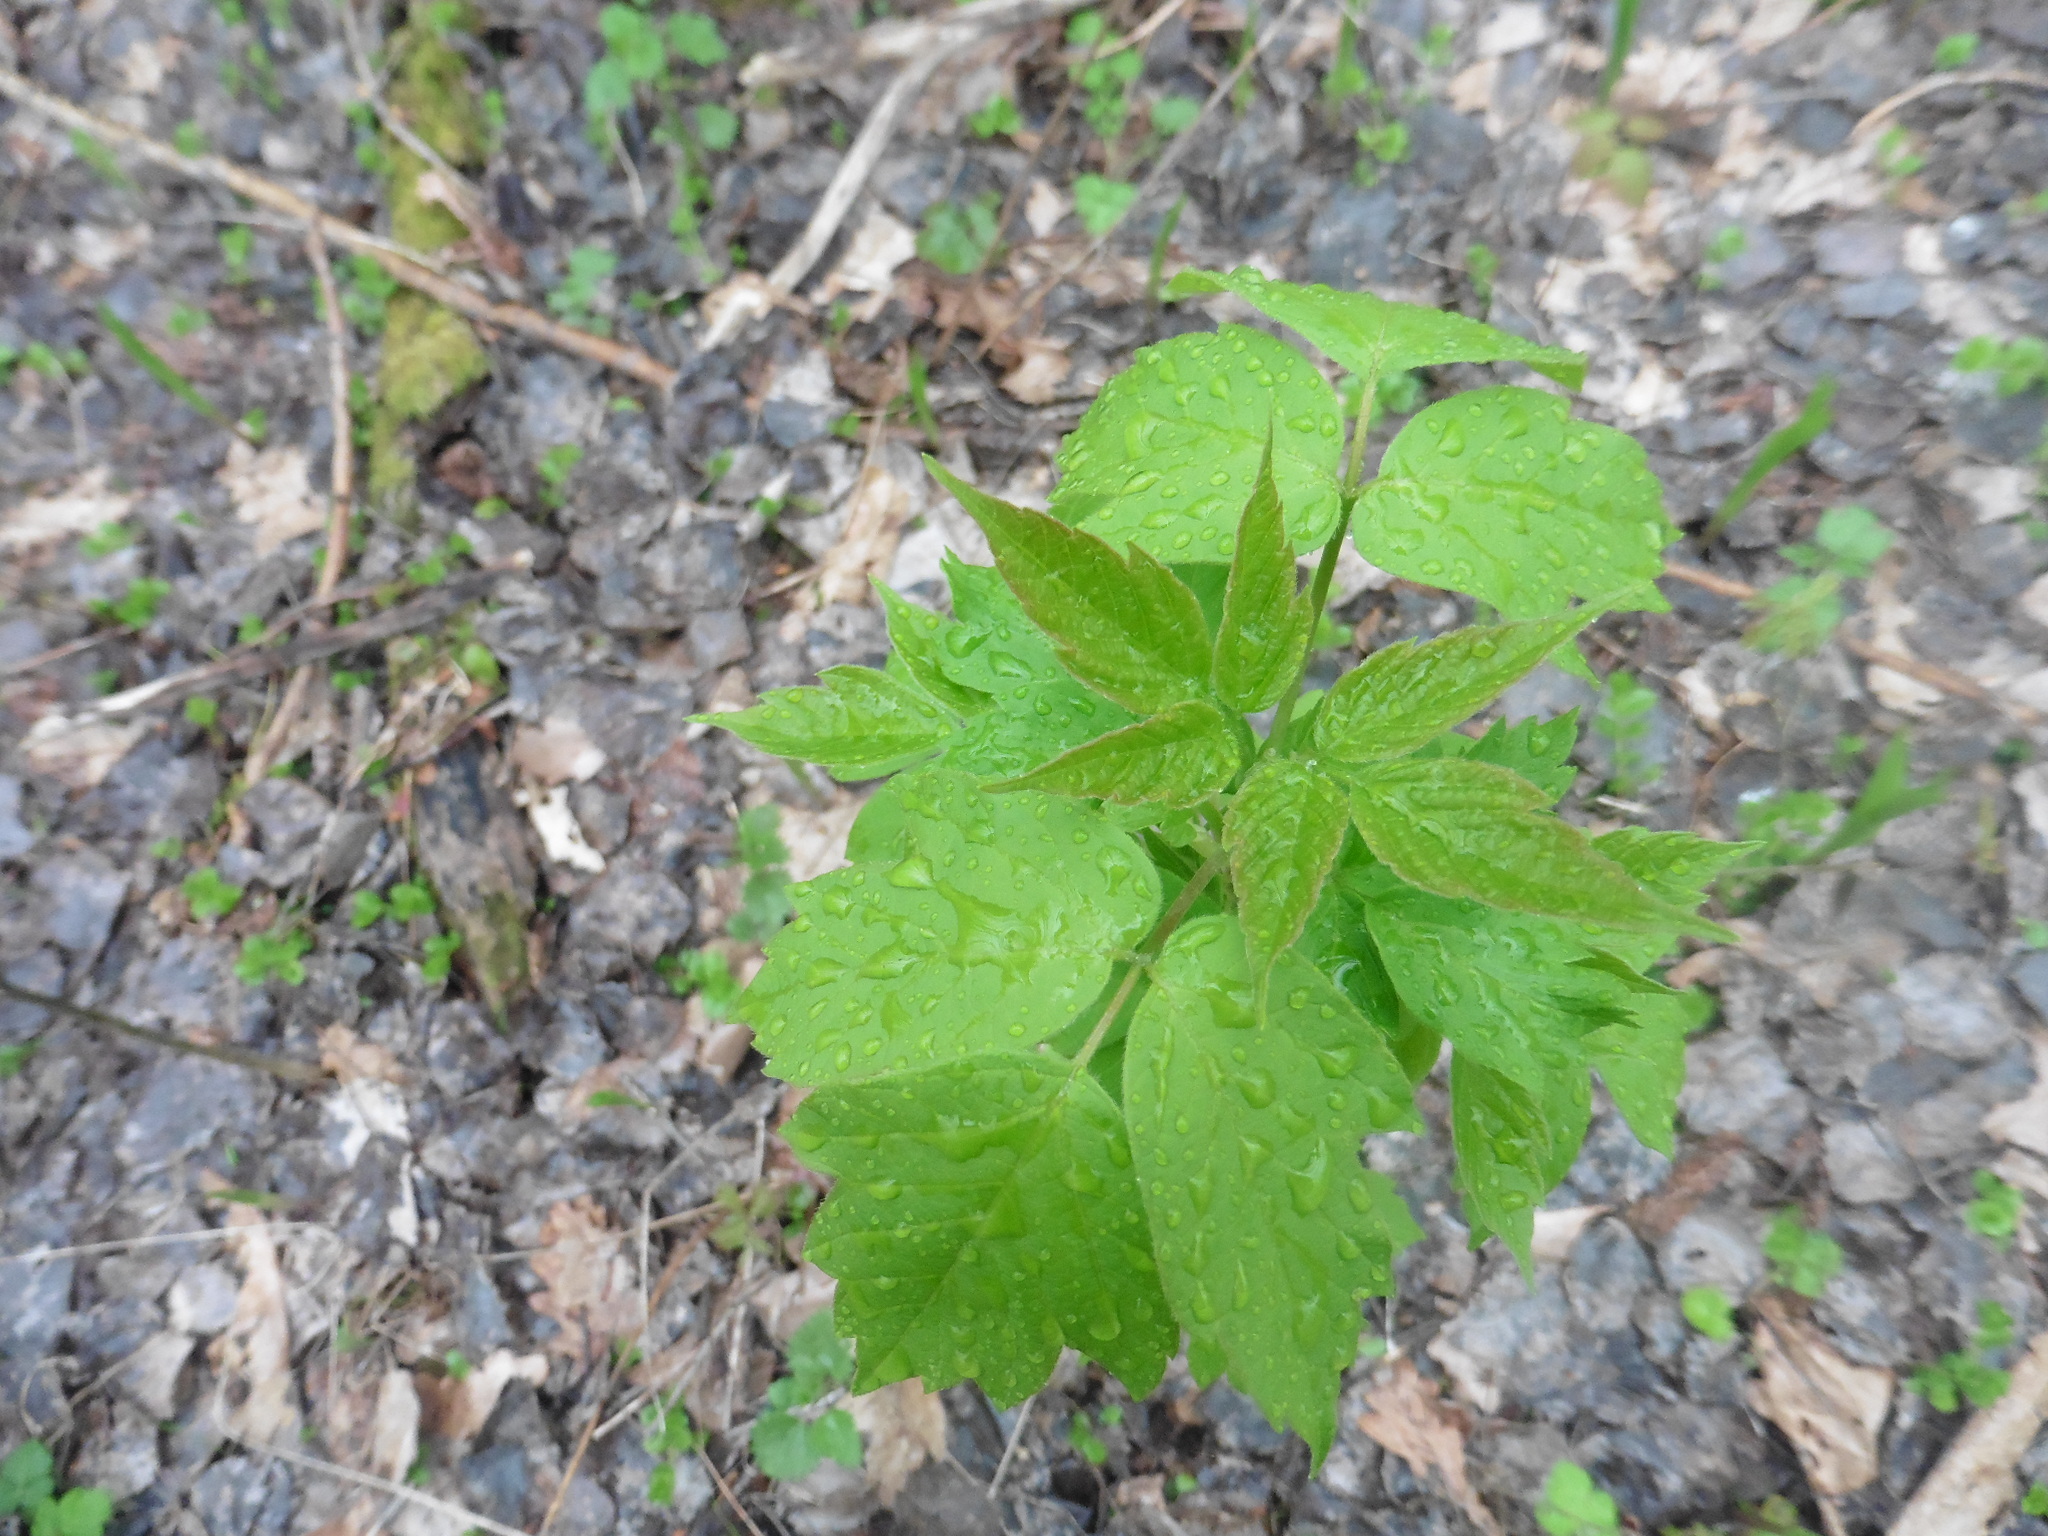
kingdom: Plantae
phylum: Tracheophyta
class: Magnoliopsida
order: Sapindales
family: Sapindaceae
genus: Acer
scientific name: Acer negundo
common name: Ashleaf maple
